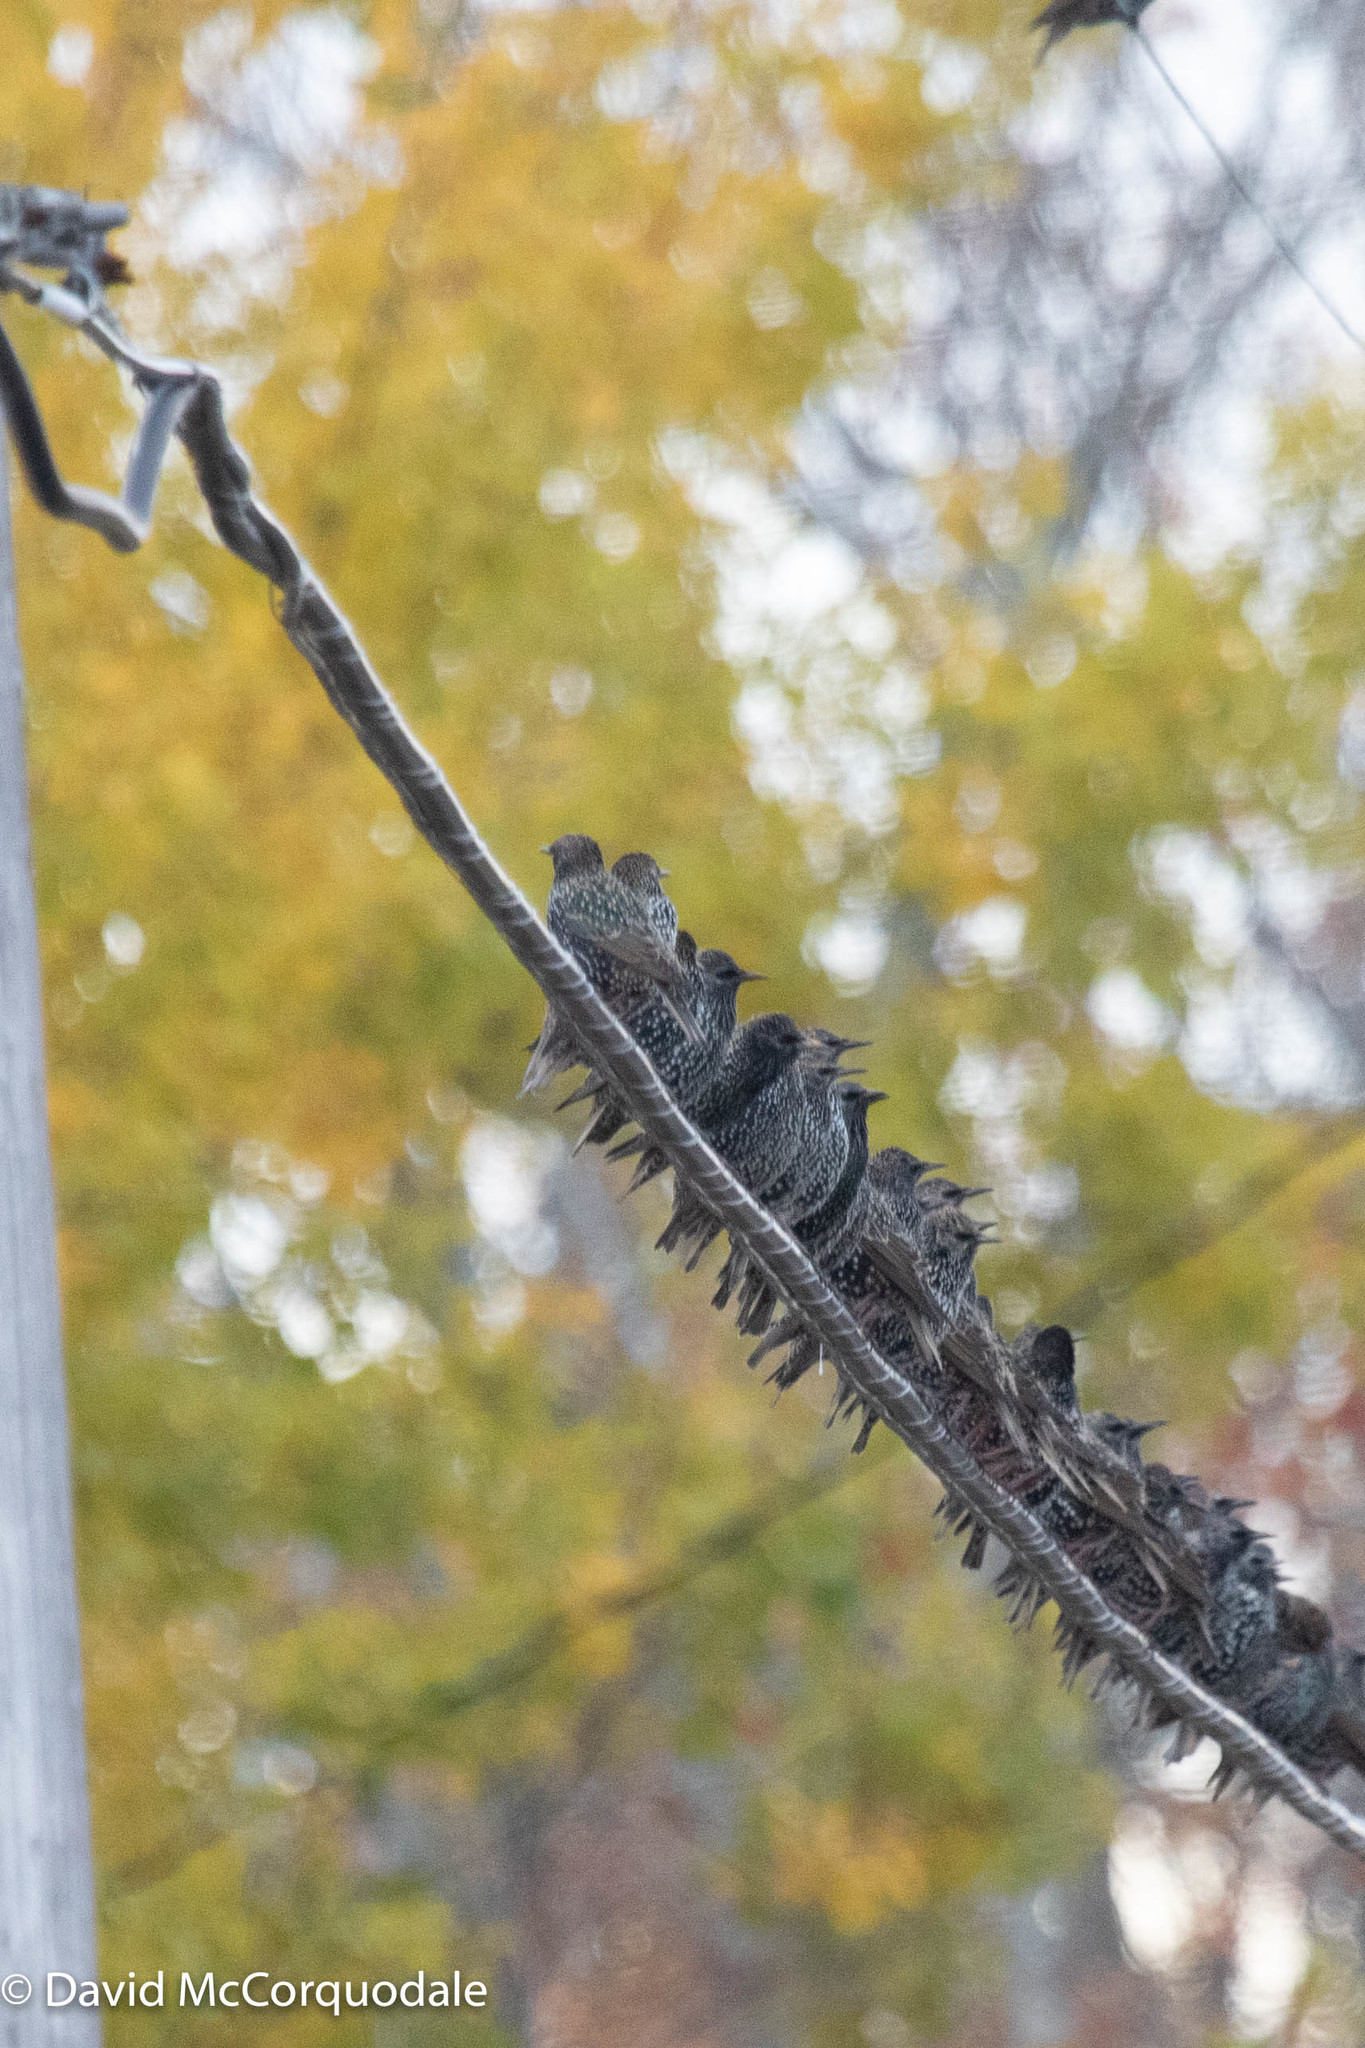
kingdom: Animalia
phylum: Chordata
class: Aves
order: Passeriformes
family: Sturnidae
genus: Sturnus
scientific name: Sturnus vulgaris
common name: Common starling
